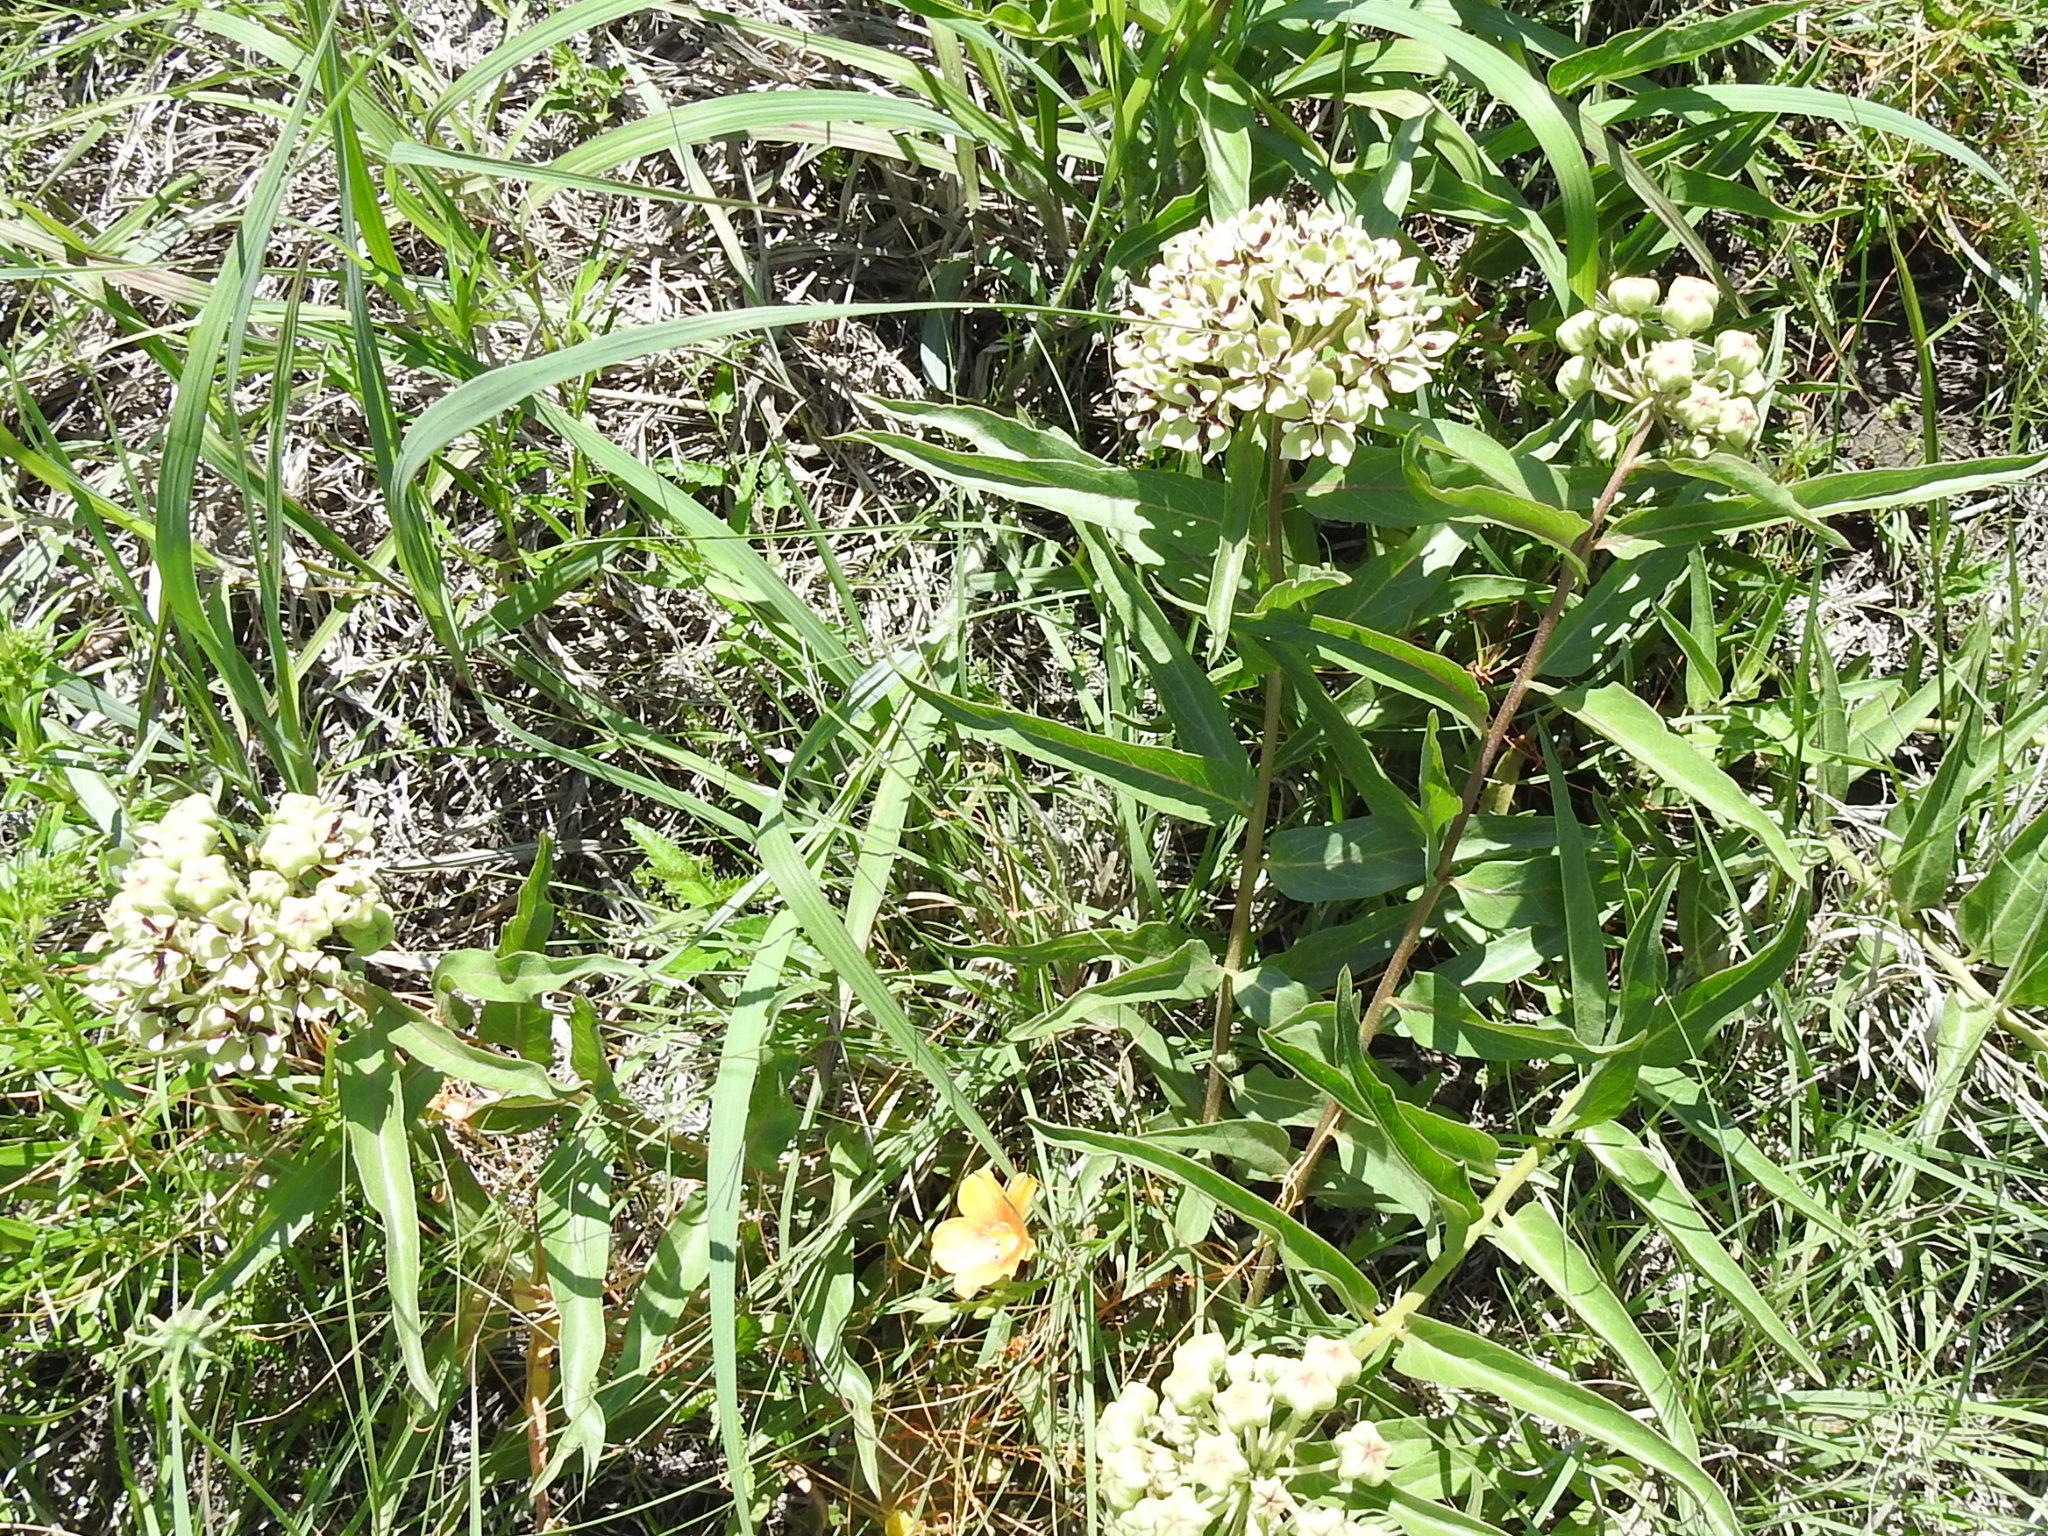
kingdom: Plantae
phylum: Tracheophyta
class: Magnoliopsida
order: Gentianales
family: Apocynaceae
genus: Asclepias
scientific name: Asclepias asperula
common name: Antelope horns
